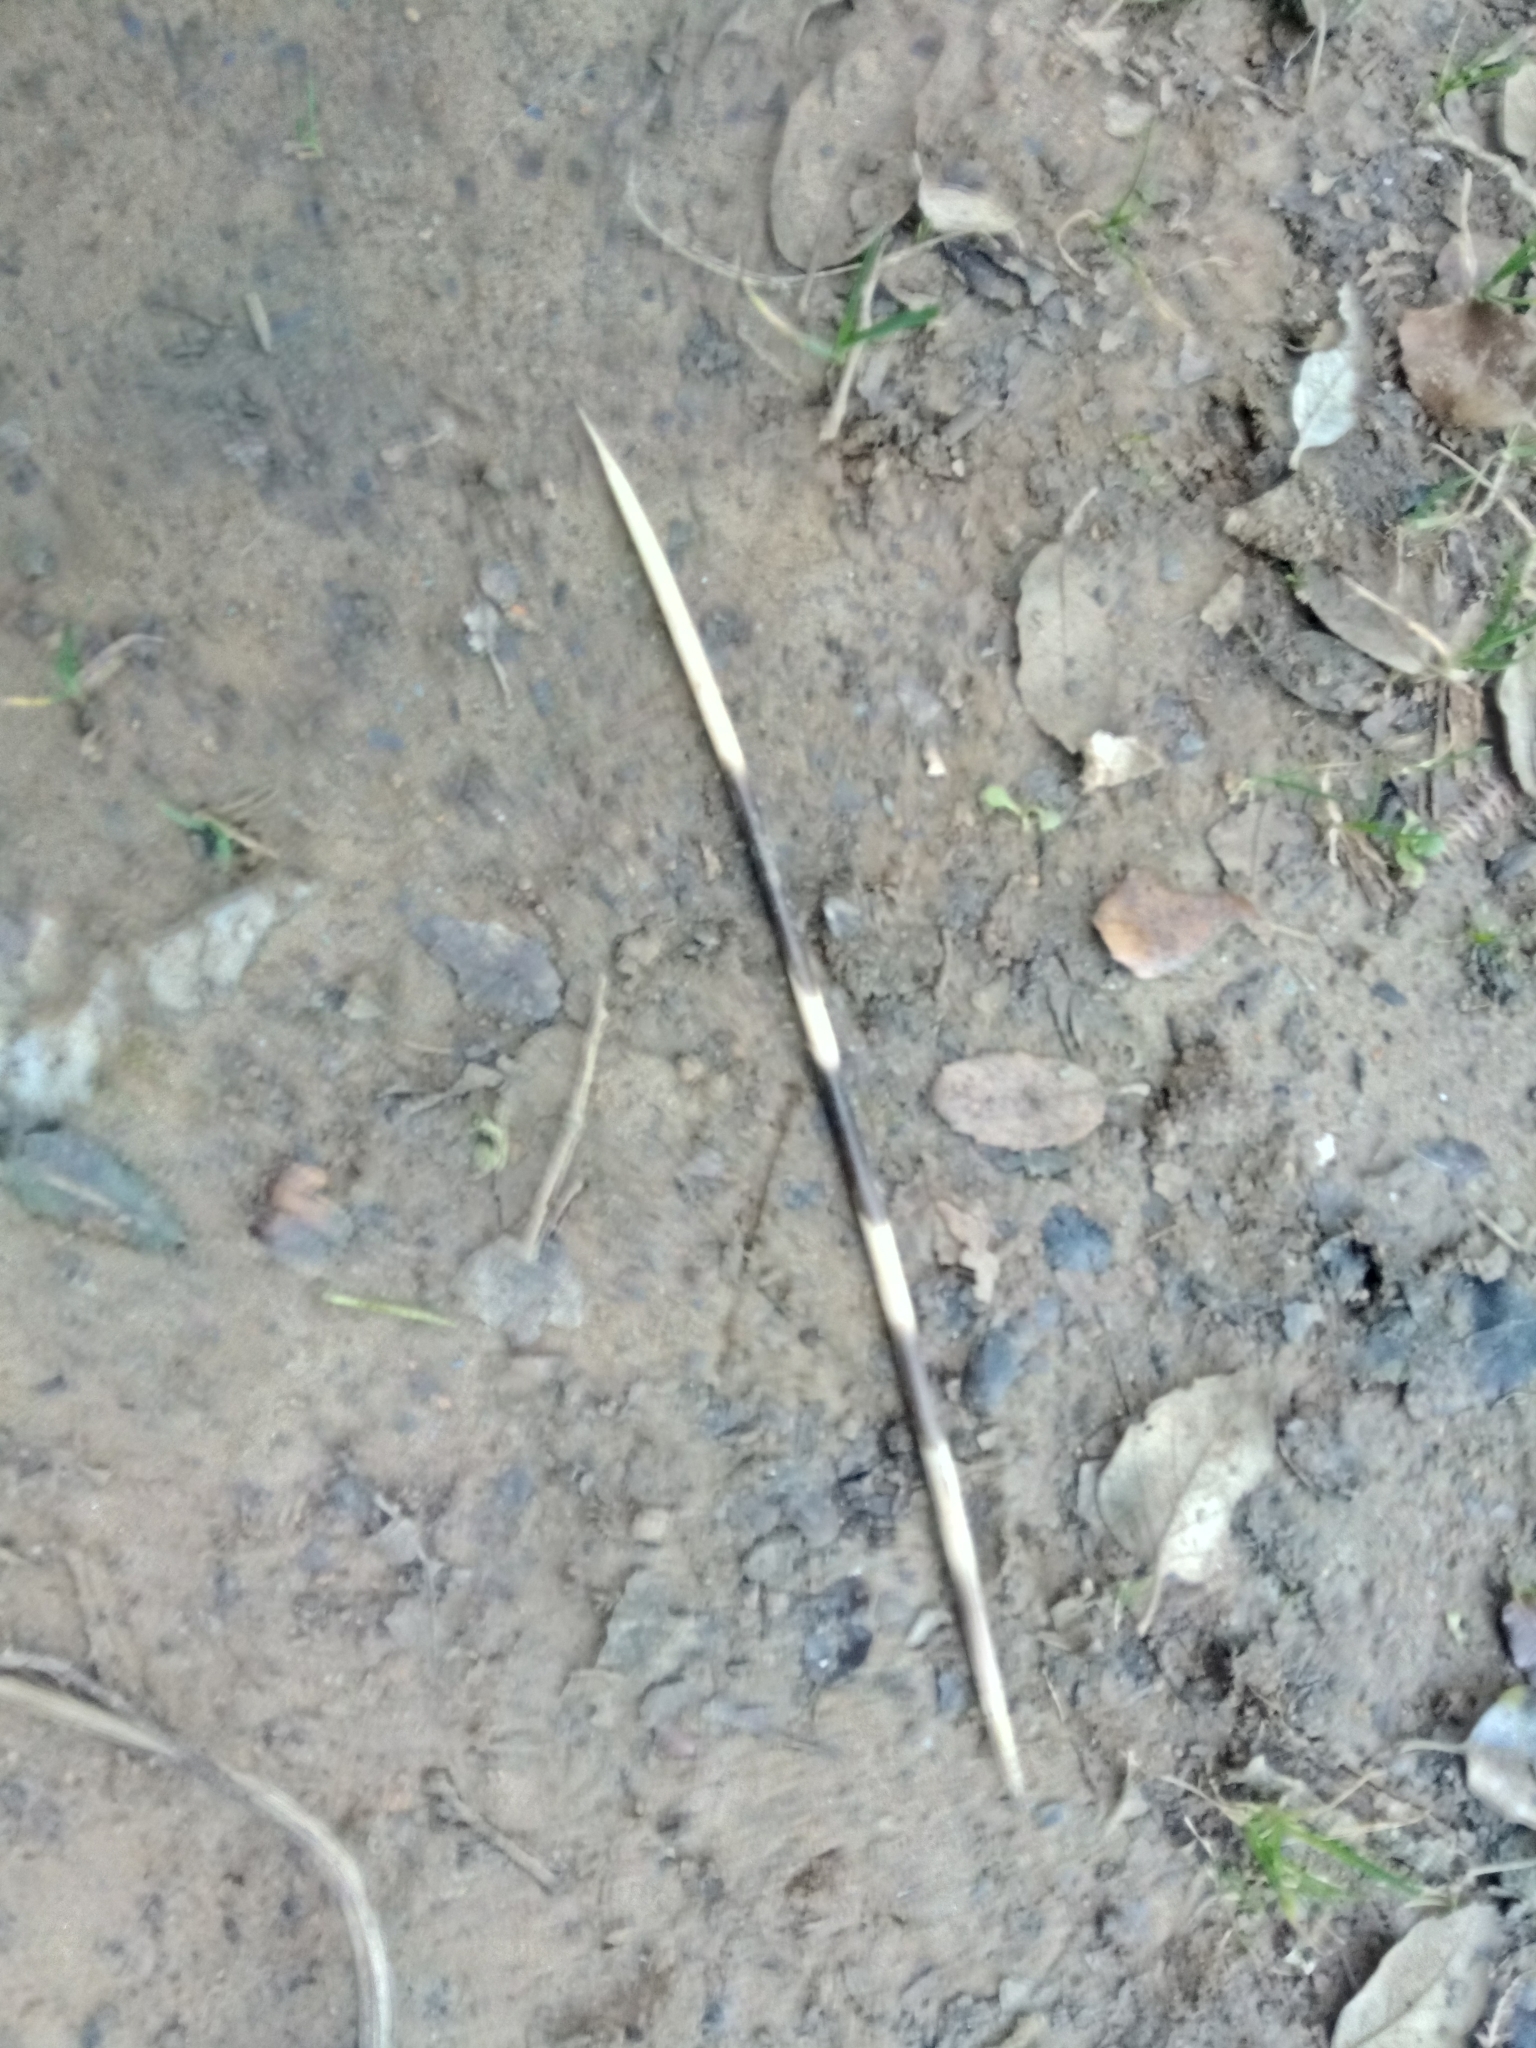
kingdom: Animalia
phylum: Chordata
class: Mammalia
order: Rodentia
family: Hystricidae
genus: Hystrix
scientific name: Hystrix cristata
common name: Crested porcupine
